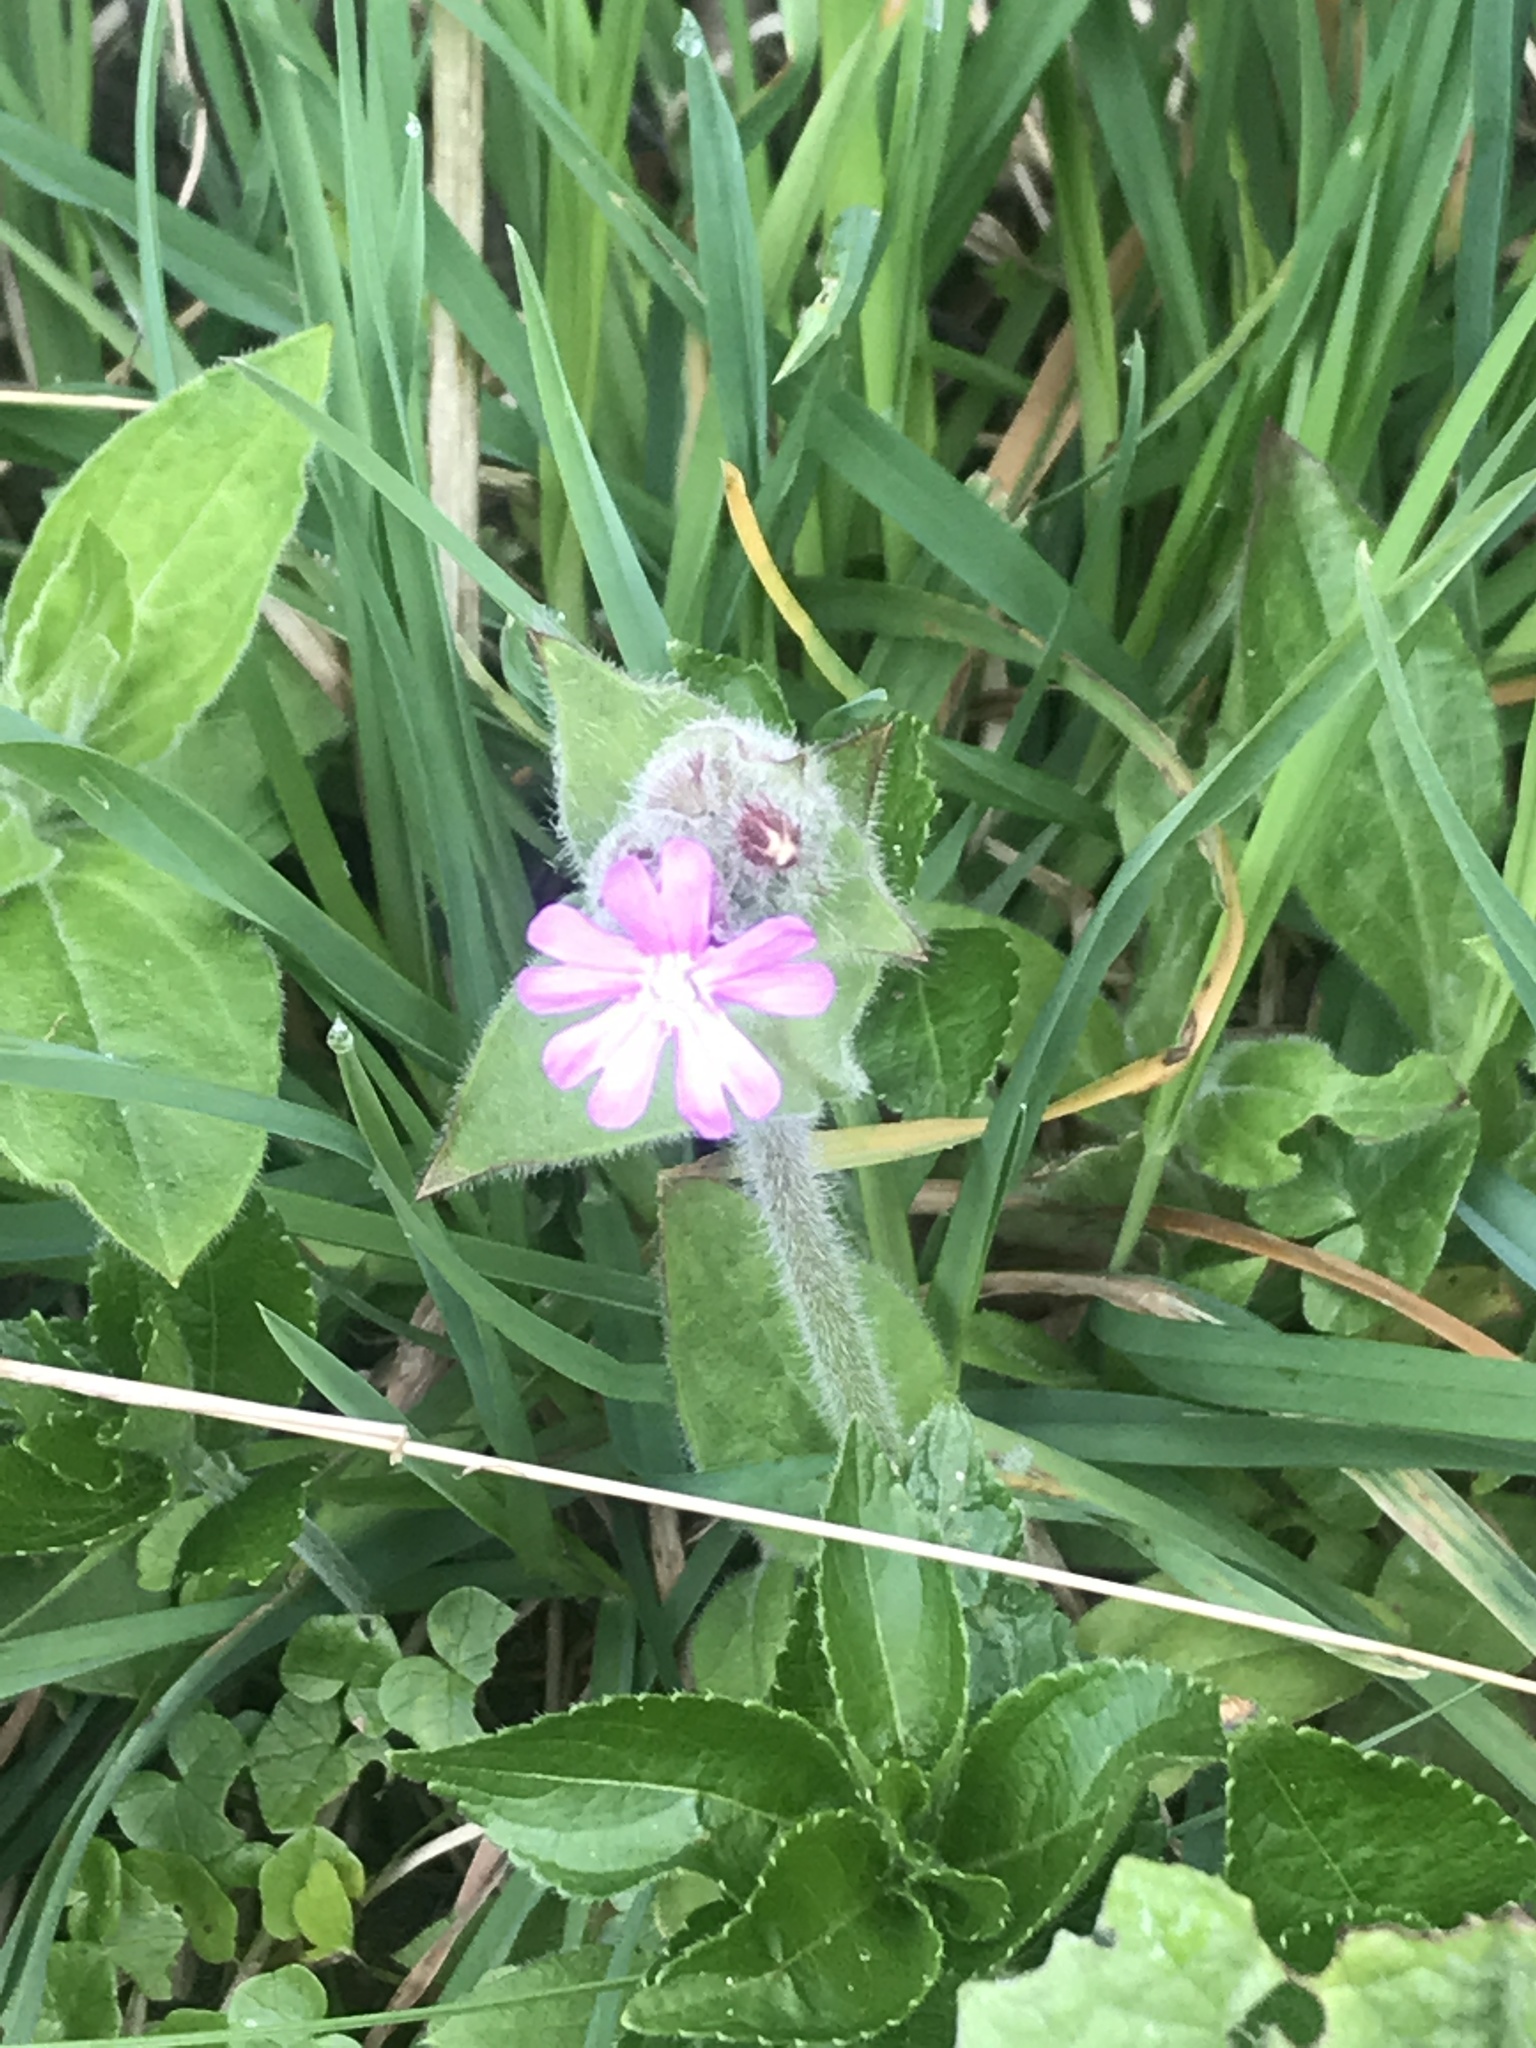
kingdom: Plantae
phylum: Tracheophyta
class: Magnoliopsida
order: Caryophyllales
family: Caryophyllaceae
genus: Silene
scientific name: Silene dioica
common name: Red campion
